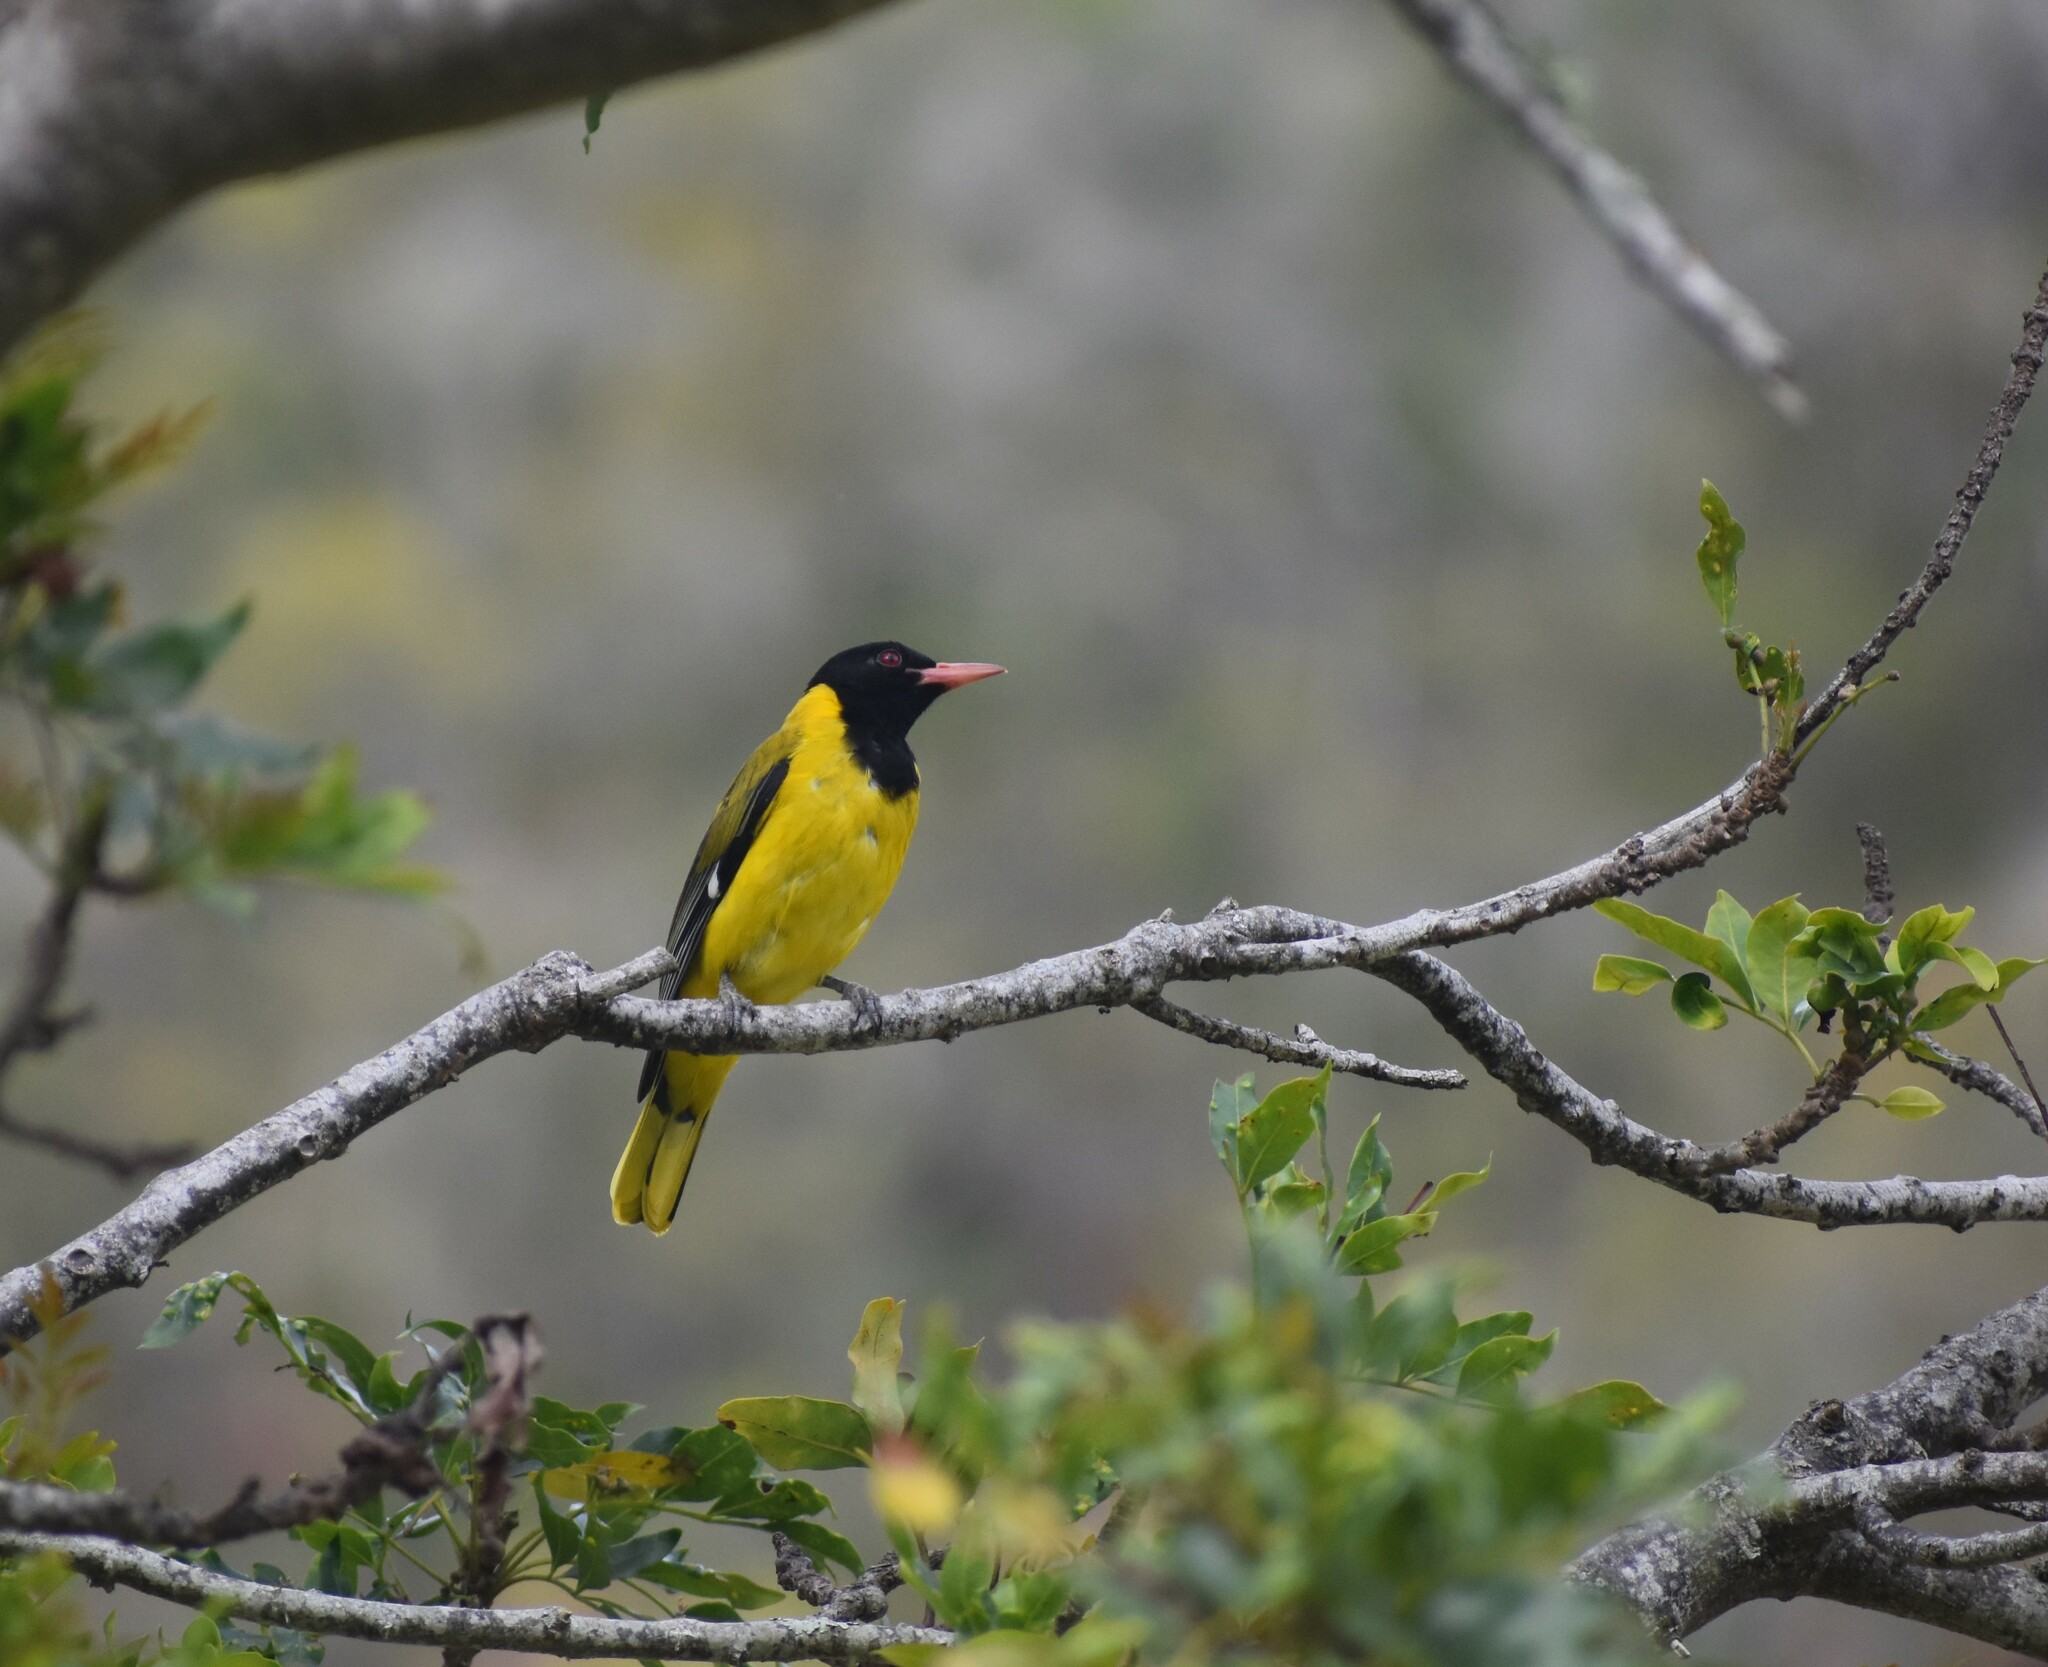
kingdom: Animalia
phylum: Chordata
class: Aves
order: Passeriformes
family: Oriolidae
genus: Oriolus
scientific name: Oriolus larvatus
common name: Black-headed oriole
